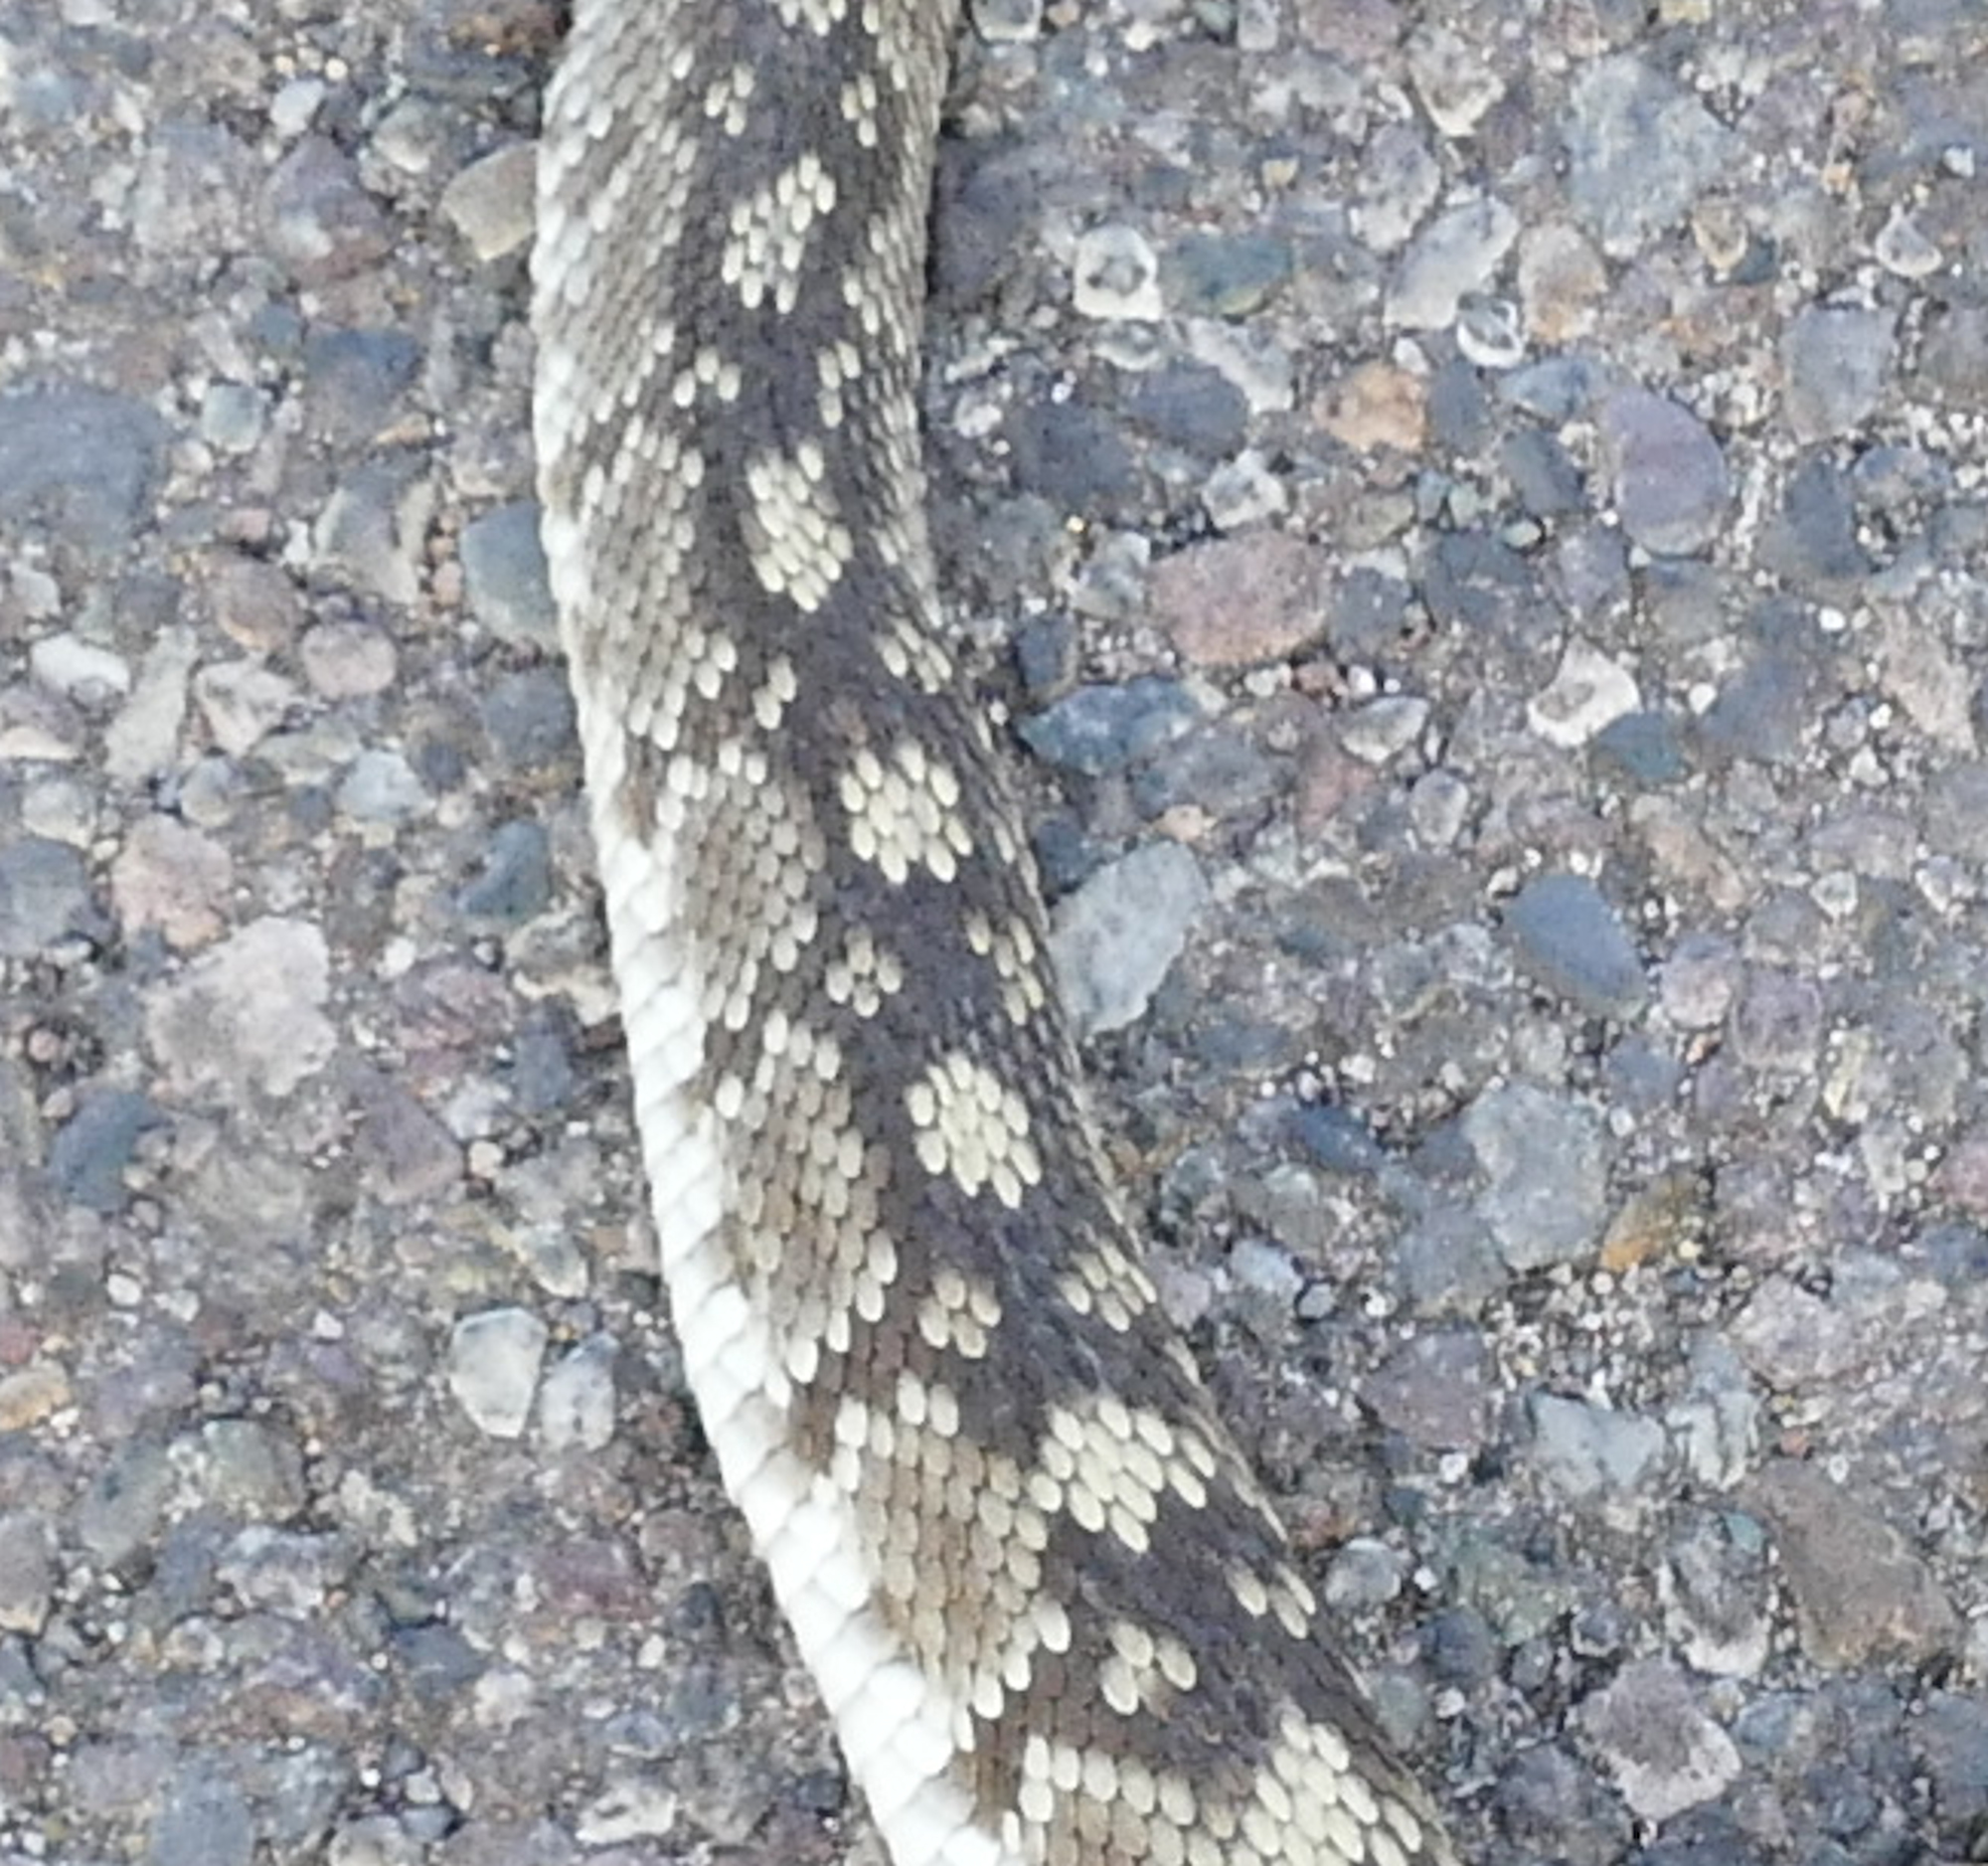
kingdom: Animalia
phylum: Chordata
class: Squamata
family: Viperidae
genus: Crotalus
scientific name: Crotalus ornatus
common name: Black-tailed rattlesnake
